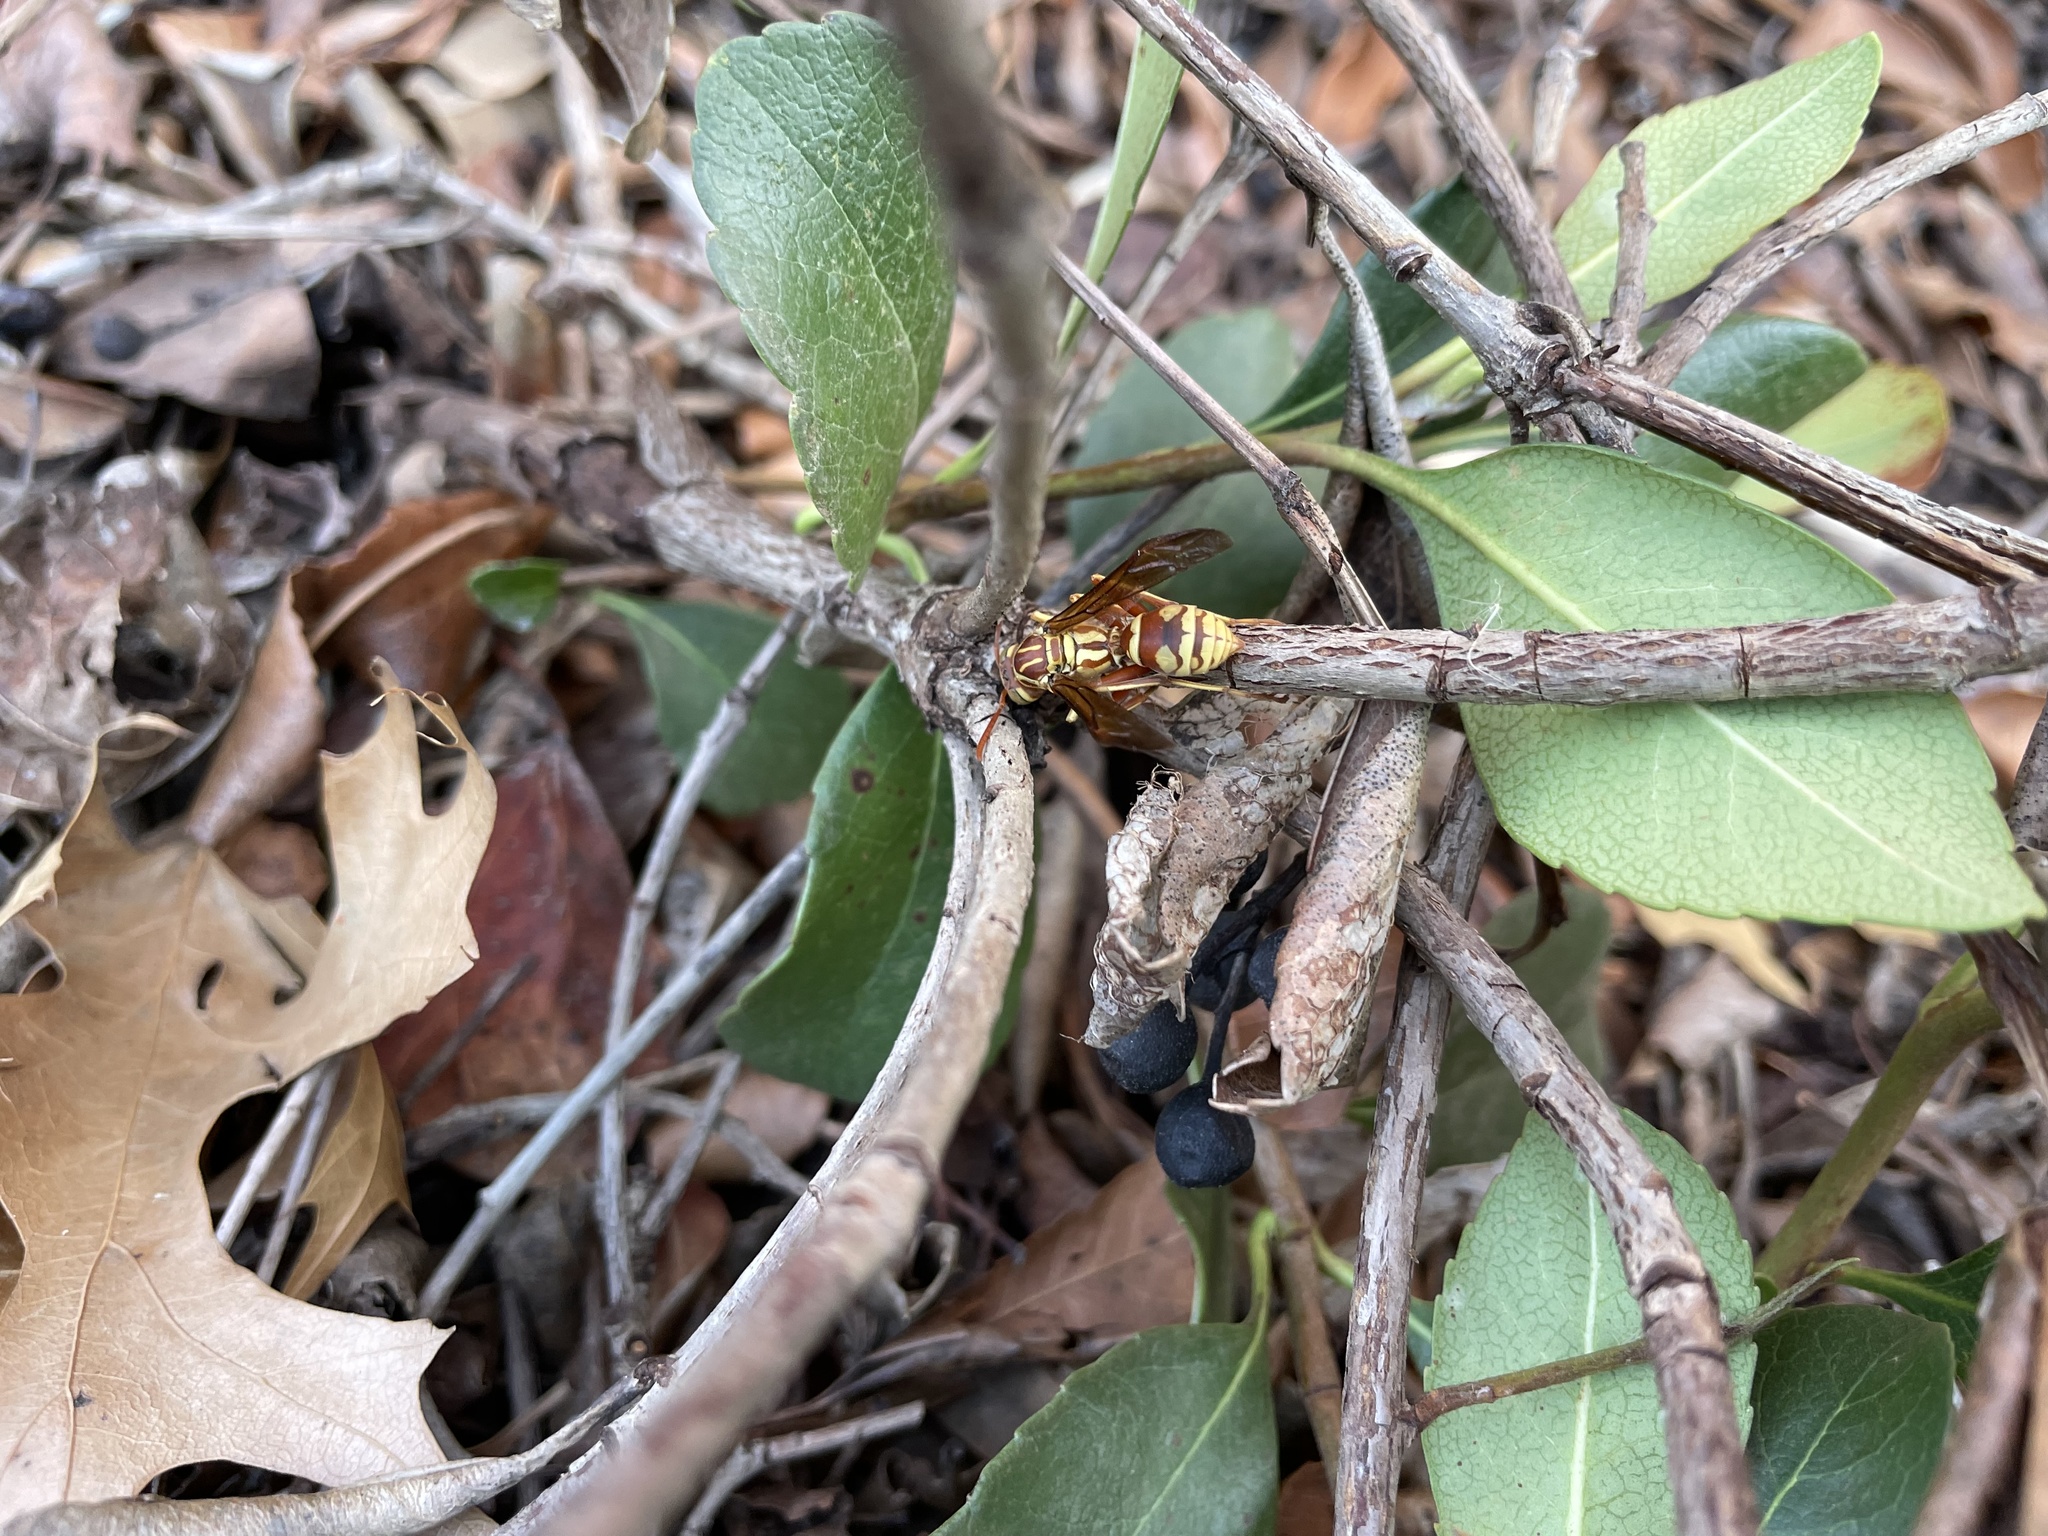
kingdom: Animalia
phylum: Arthropoda
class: Insecta
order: Hymenoptera
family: Eumenidae
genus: Polistes
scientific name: Polistes apachus
